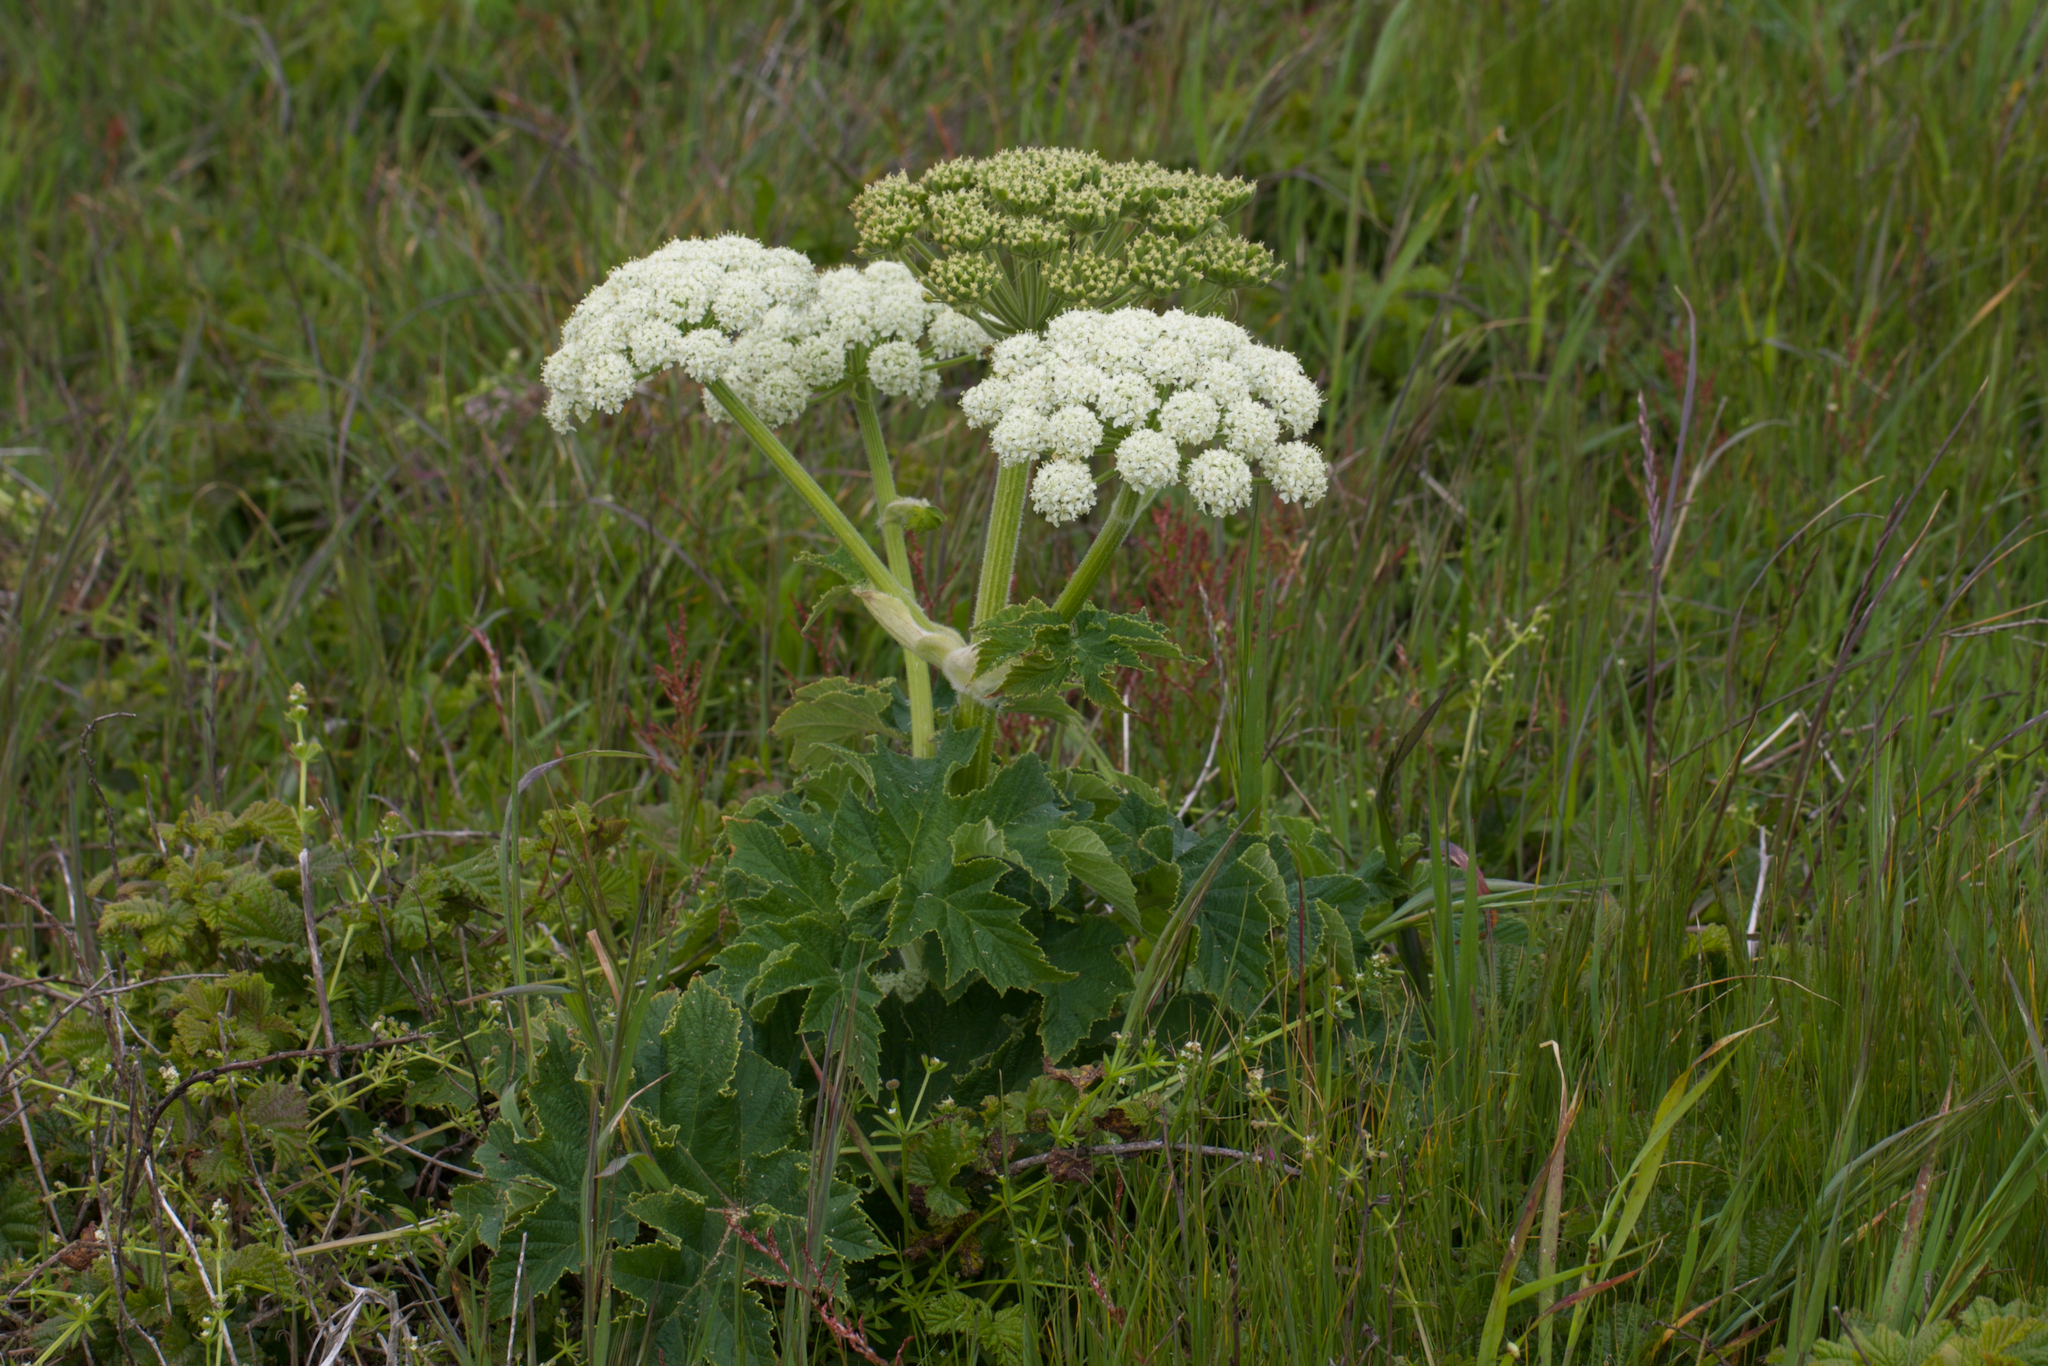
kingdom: Plantae
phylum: Tracheophyta
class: Magnoliopsida
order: Apiales
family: Apiaceae
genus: Heracleum
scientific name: Heracleum maximum
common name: American cow parsnip
